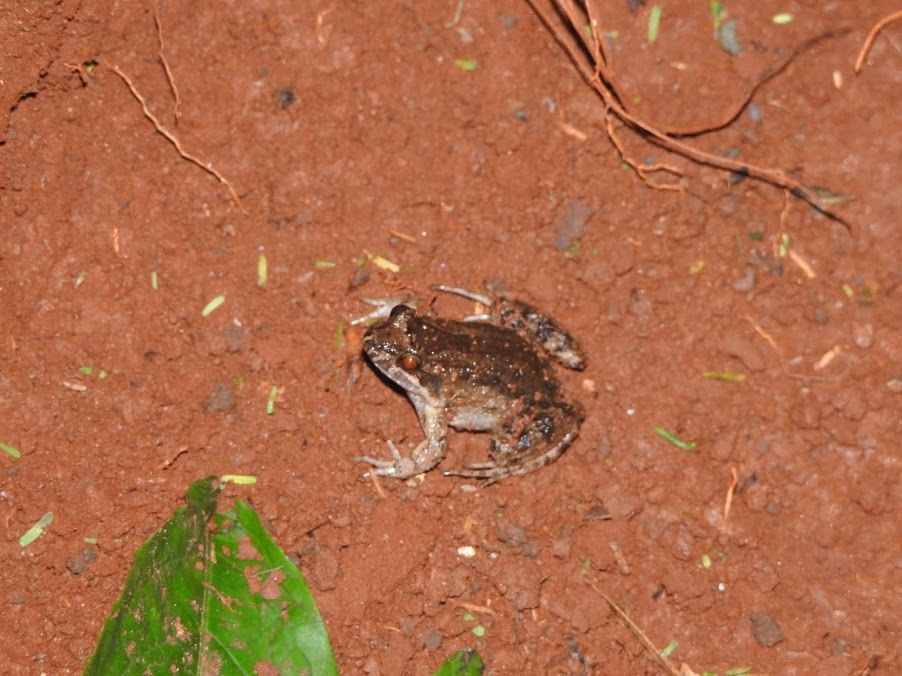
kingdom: Animalia
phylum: Chordata
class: Amphibia
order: Anura
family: Leptodactylidae
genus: Leptodactylus
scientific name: Leptodactylus podicipinus
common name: Pointedbelly frog
